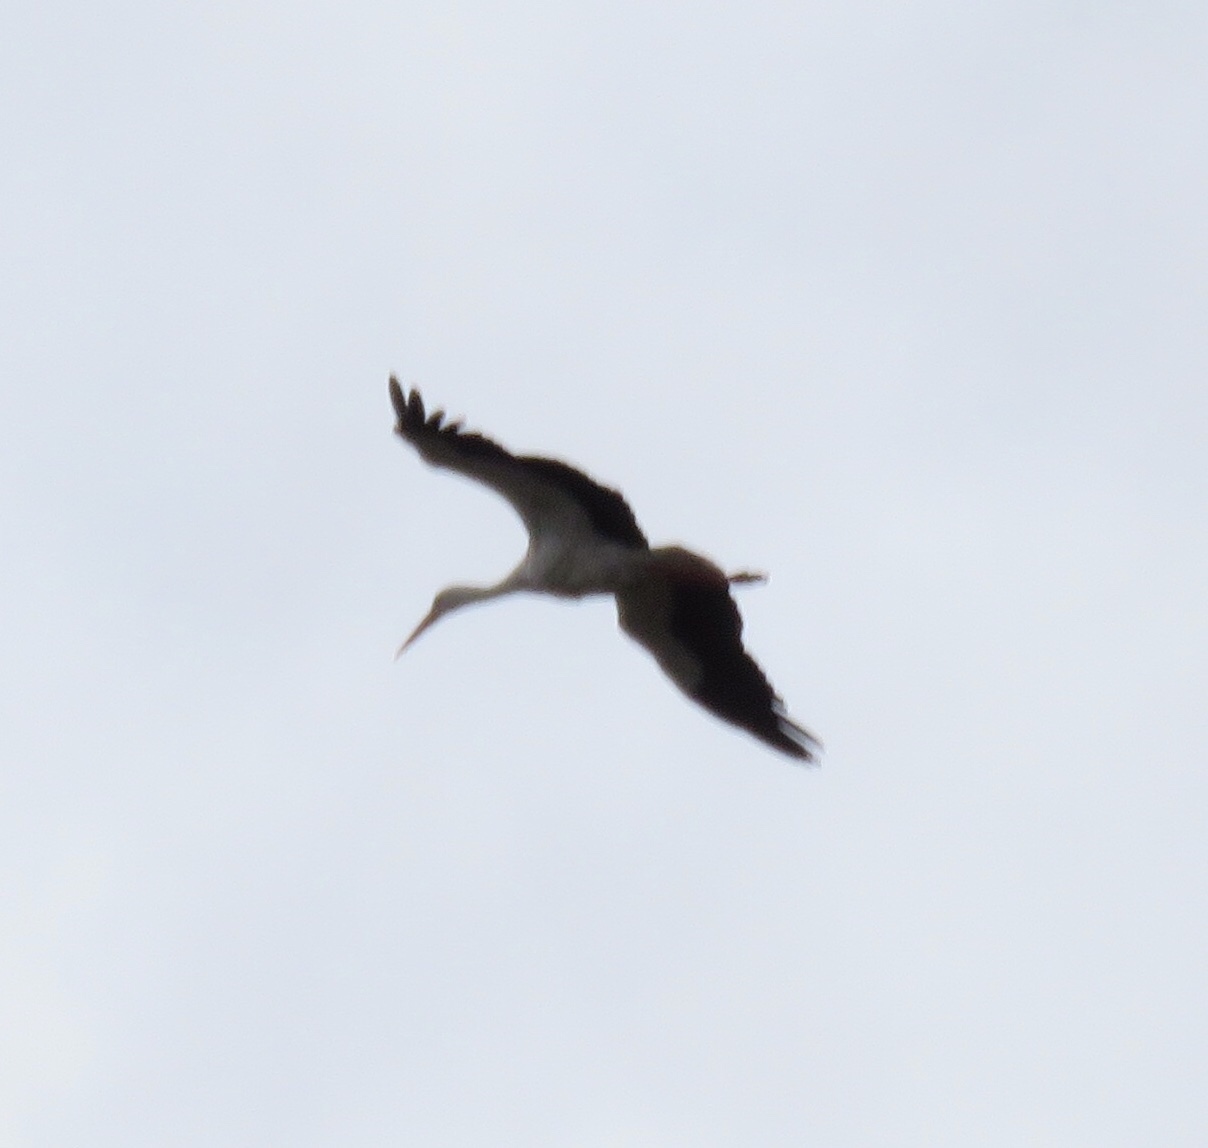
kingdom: Animalia
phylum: Chordata
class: Aves
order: Ciconiiformes
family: Ciconiidae
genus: Ciconia
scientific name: Ciconia ciconia
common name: White stork
